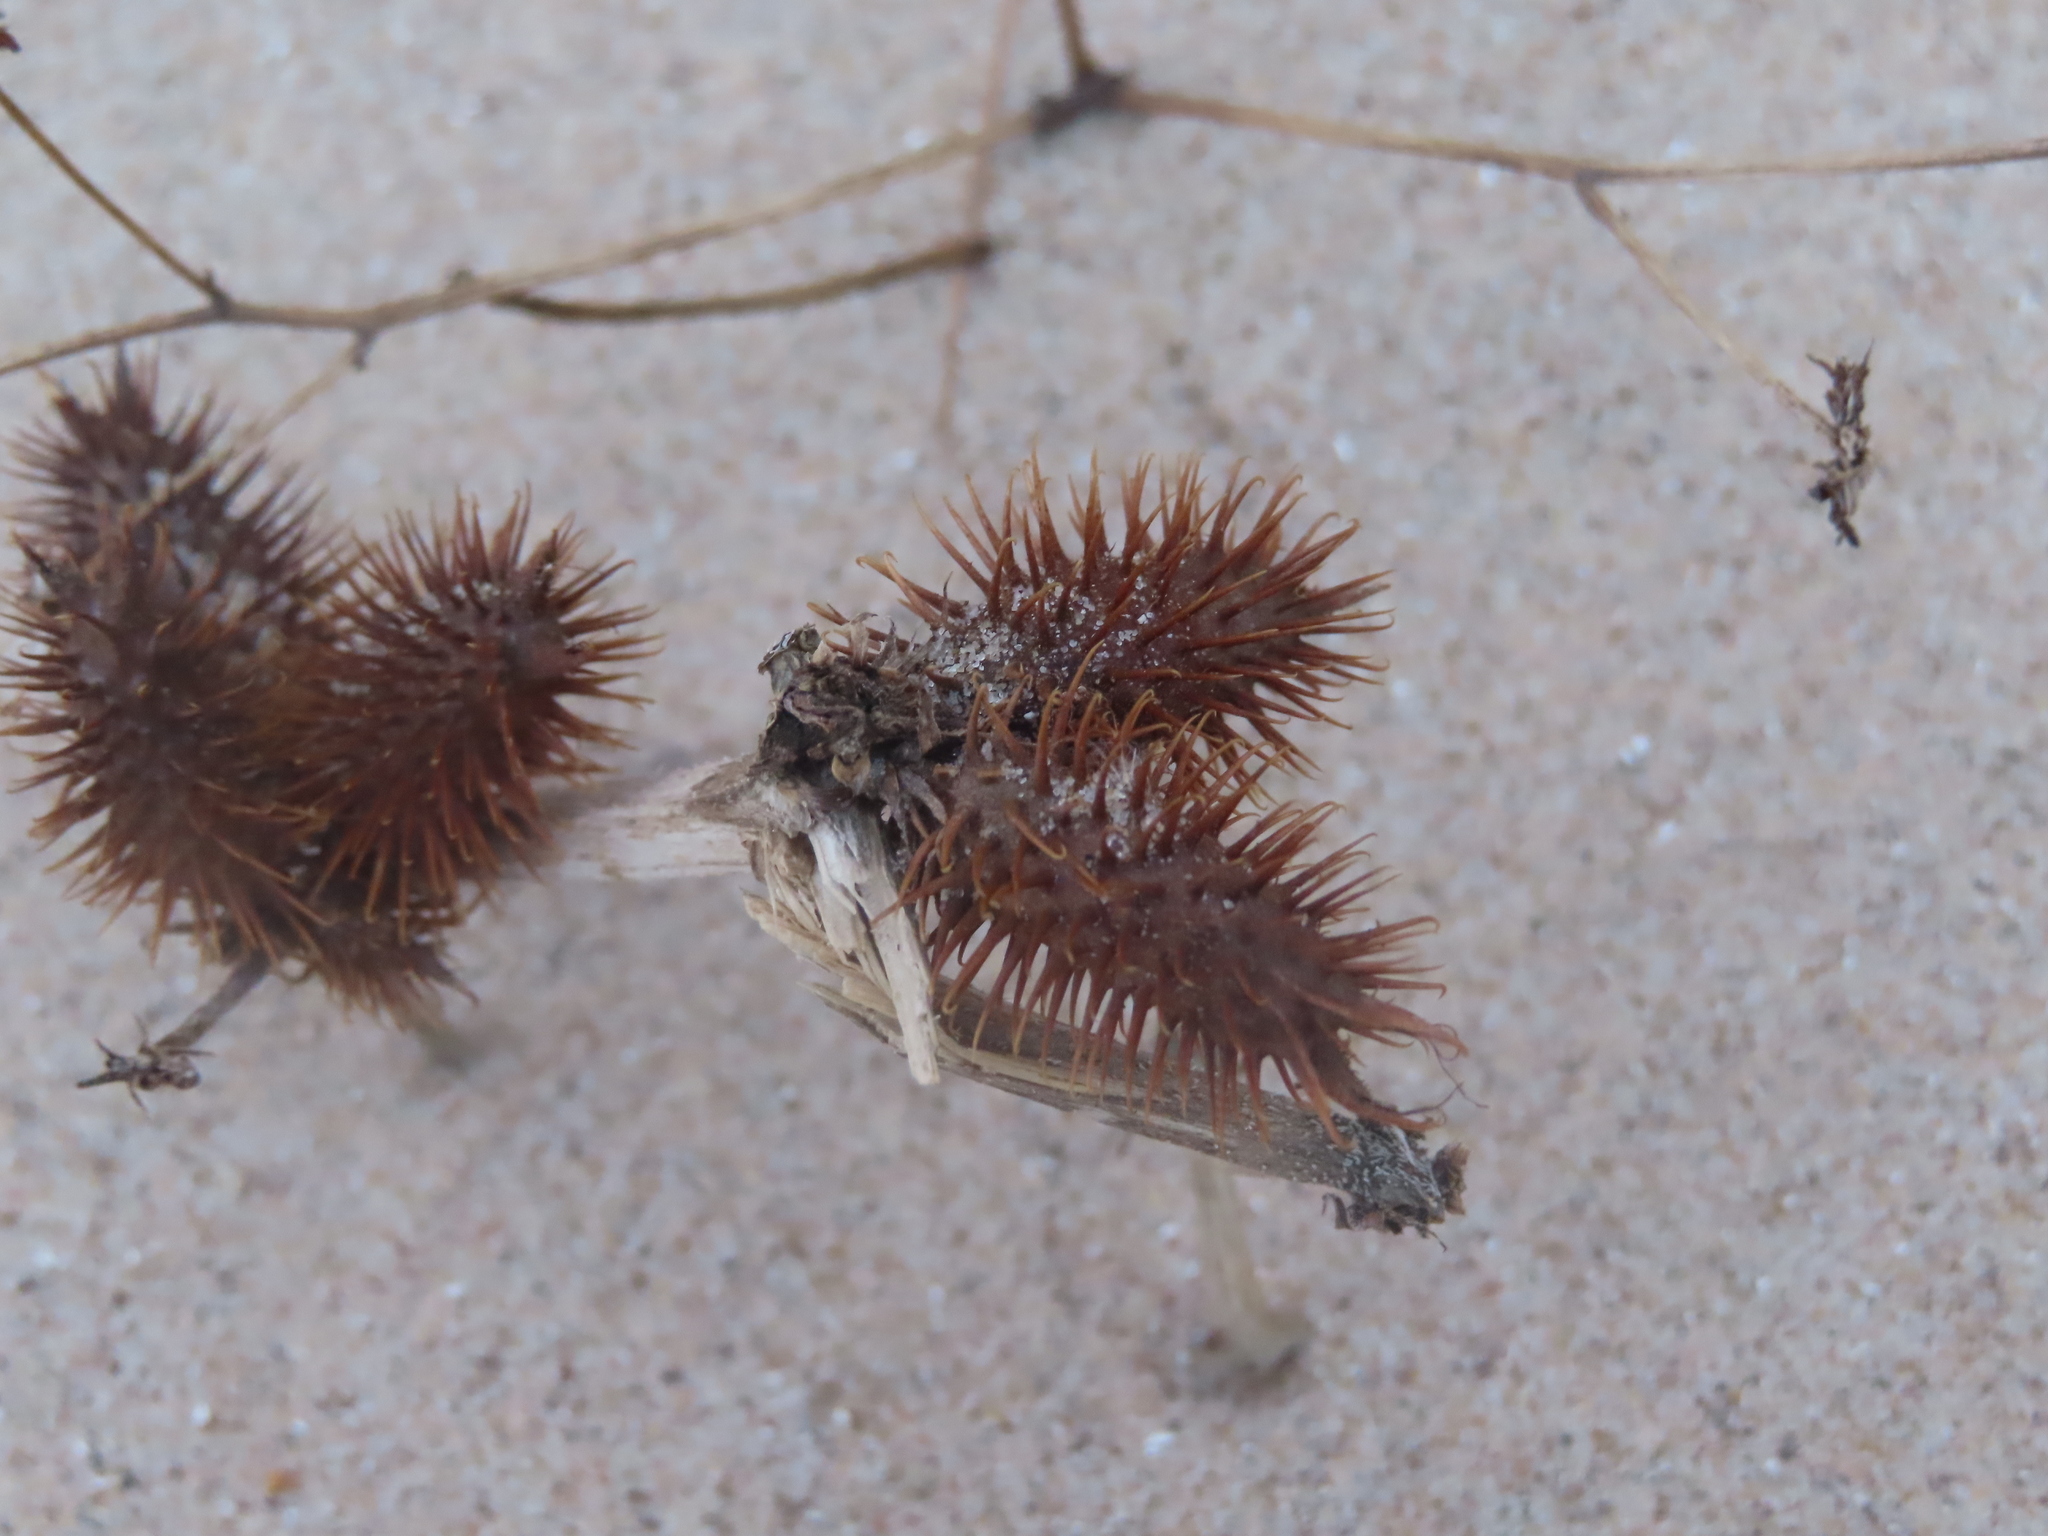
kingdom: Plantae
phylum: Tracheophyta
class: Magnoliopsida
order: Asterales
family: Asteraceae
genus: Xanthium
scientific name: Xanthium strumarium
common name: Rough cocklebur
